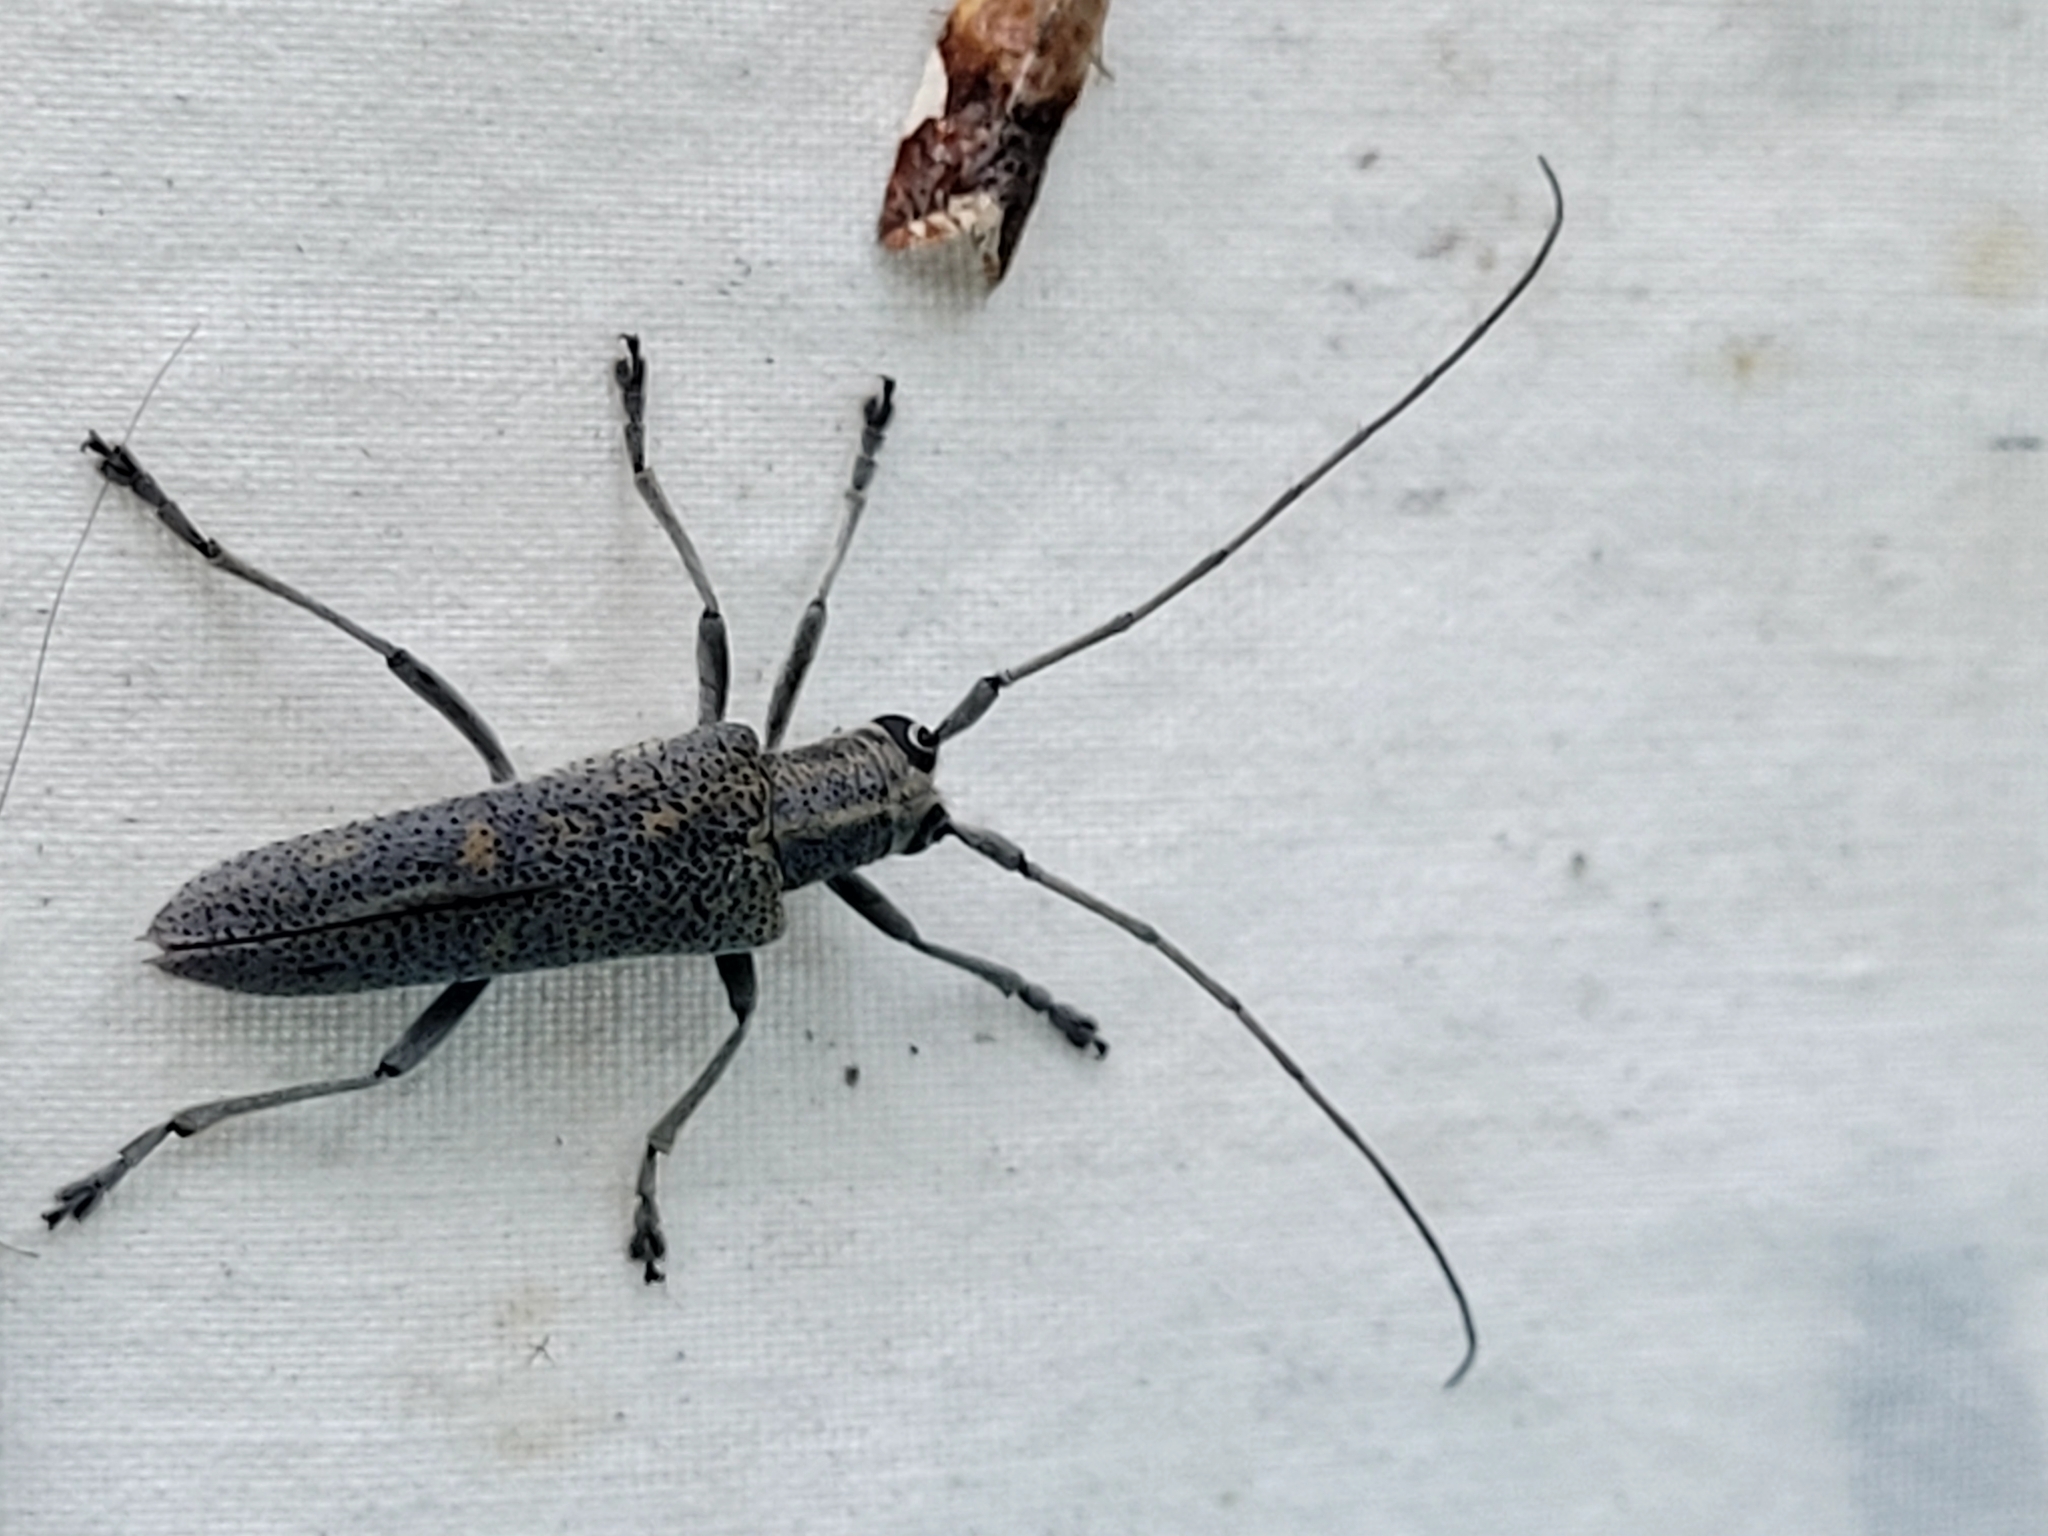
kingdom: Animalia
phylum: Arthropoda
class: Insecta
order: Coleoptera
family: Cerambycidae
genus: Saperda
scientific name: Saperda calcarata
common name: Poplar borer
